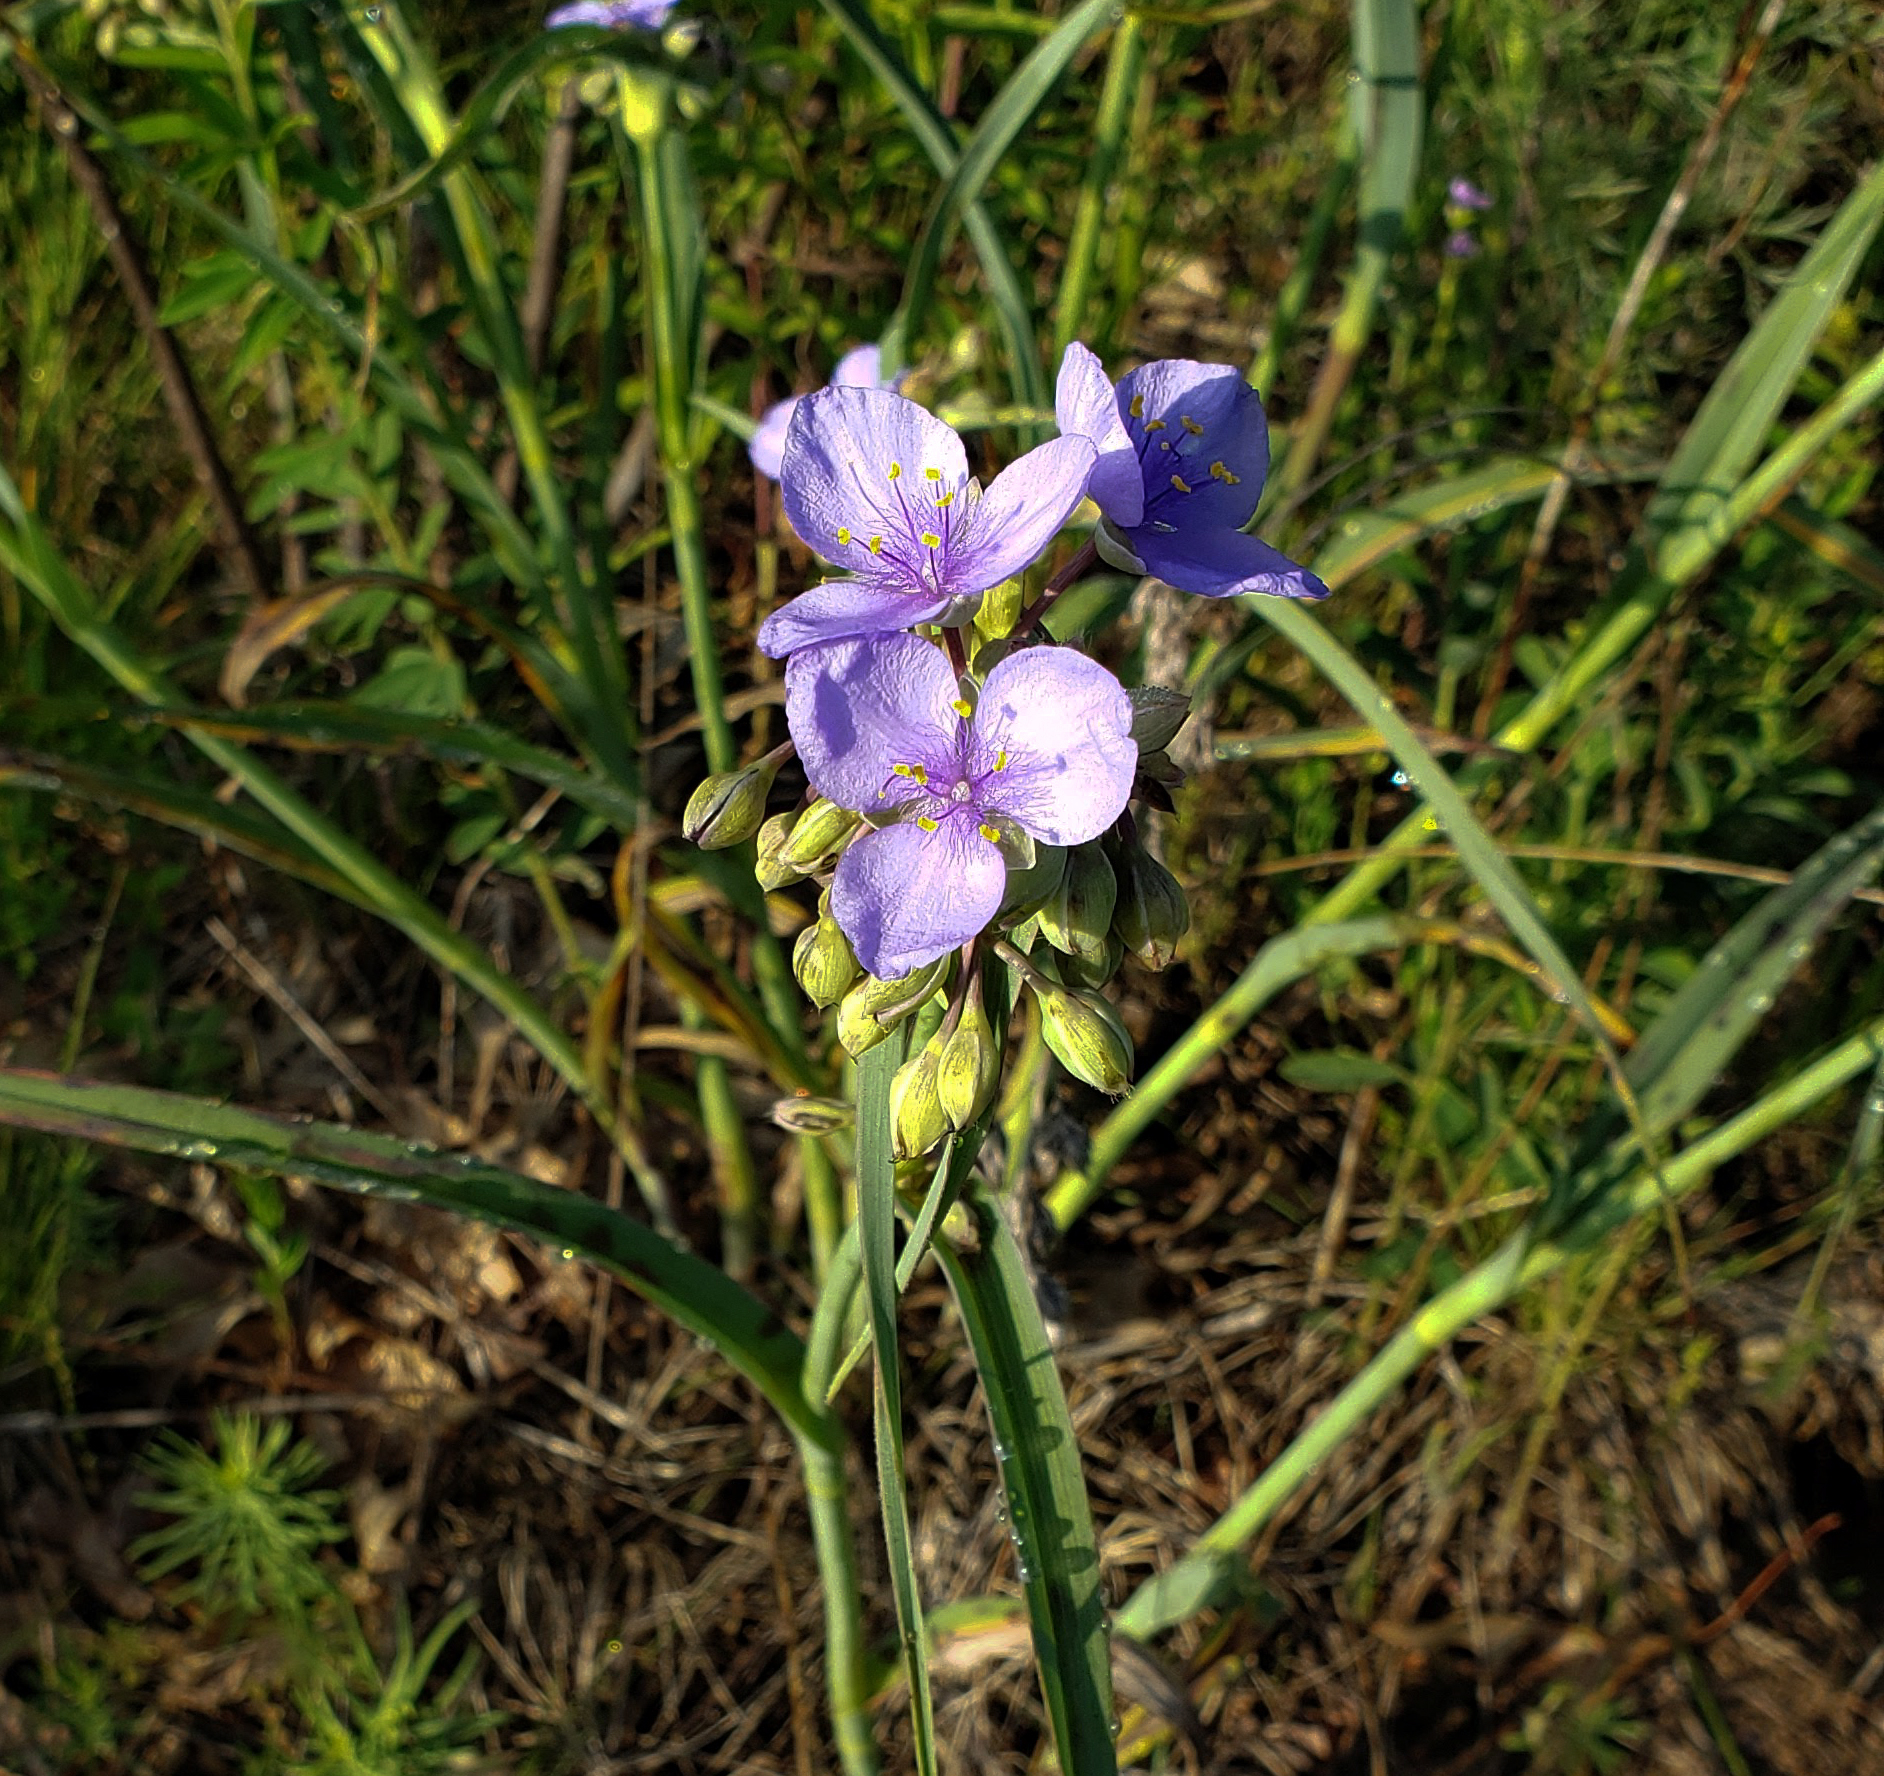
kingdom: Plantae
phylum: Tracheophyta
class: Liliopsida
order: Commelinales
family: Commelinaceae
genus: Tradescantia
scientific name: Tradescantia ohiensis
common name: Ohio spiderwort
